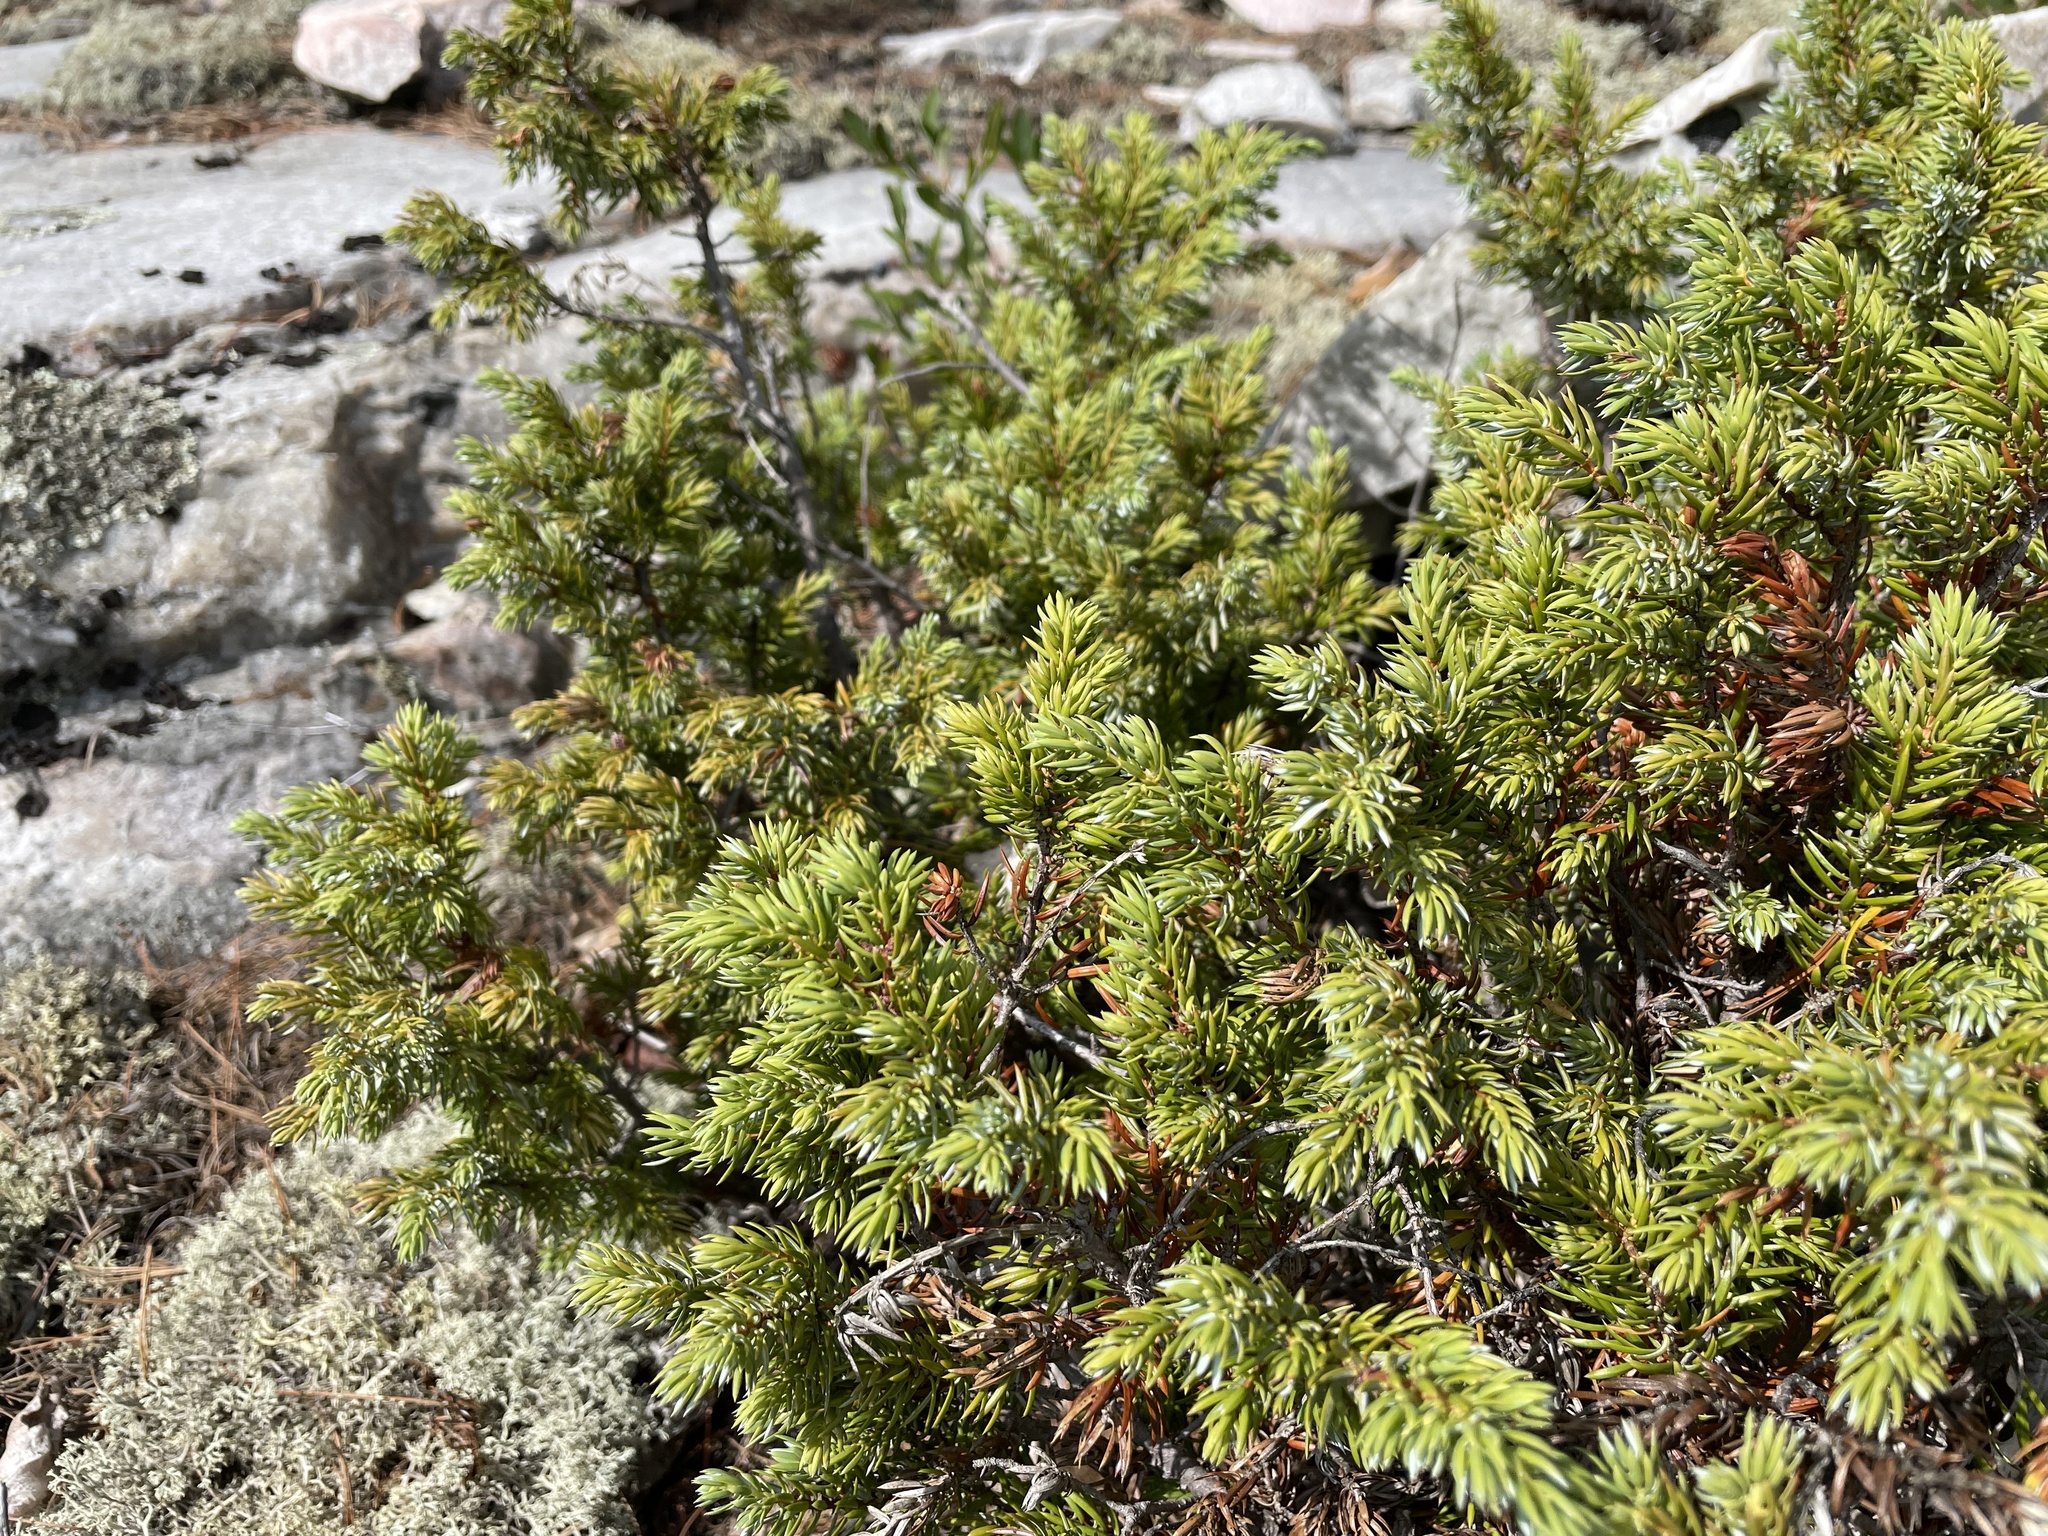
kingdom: Plantae
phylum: Tracheophyta
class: Pinopsida
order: Pinales
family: Cupressaceae
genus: Juniperus
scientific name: Juniperus communis
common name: Common juniper
